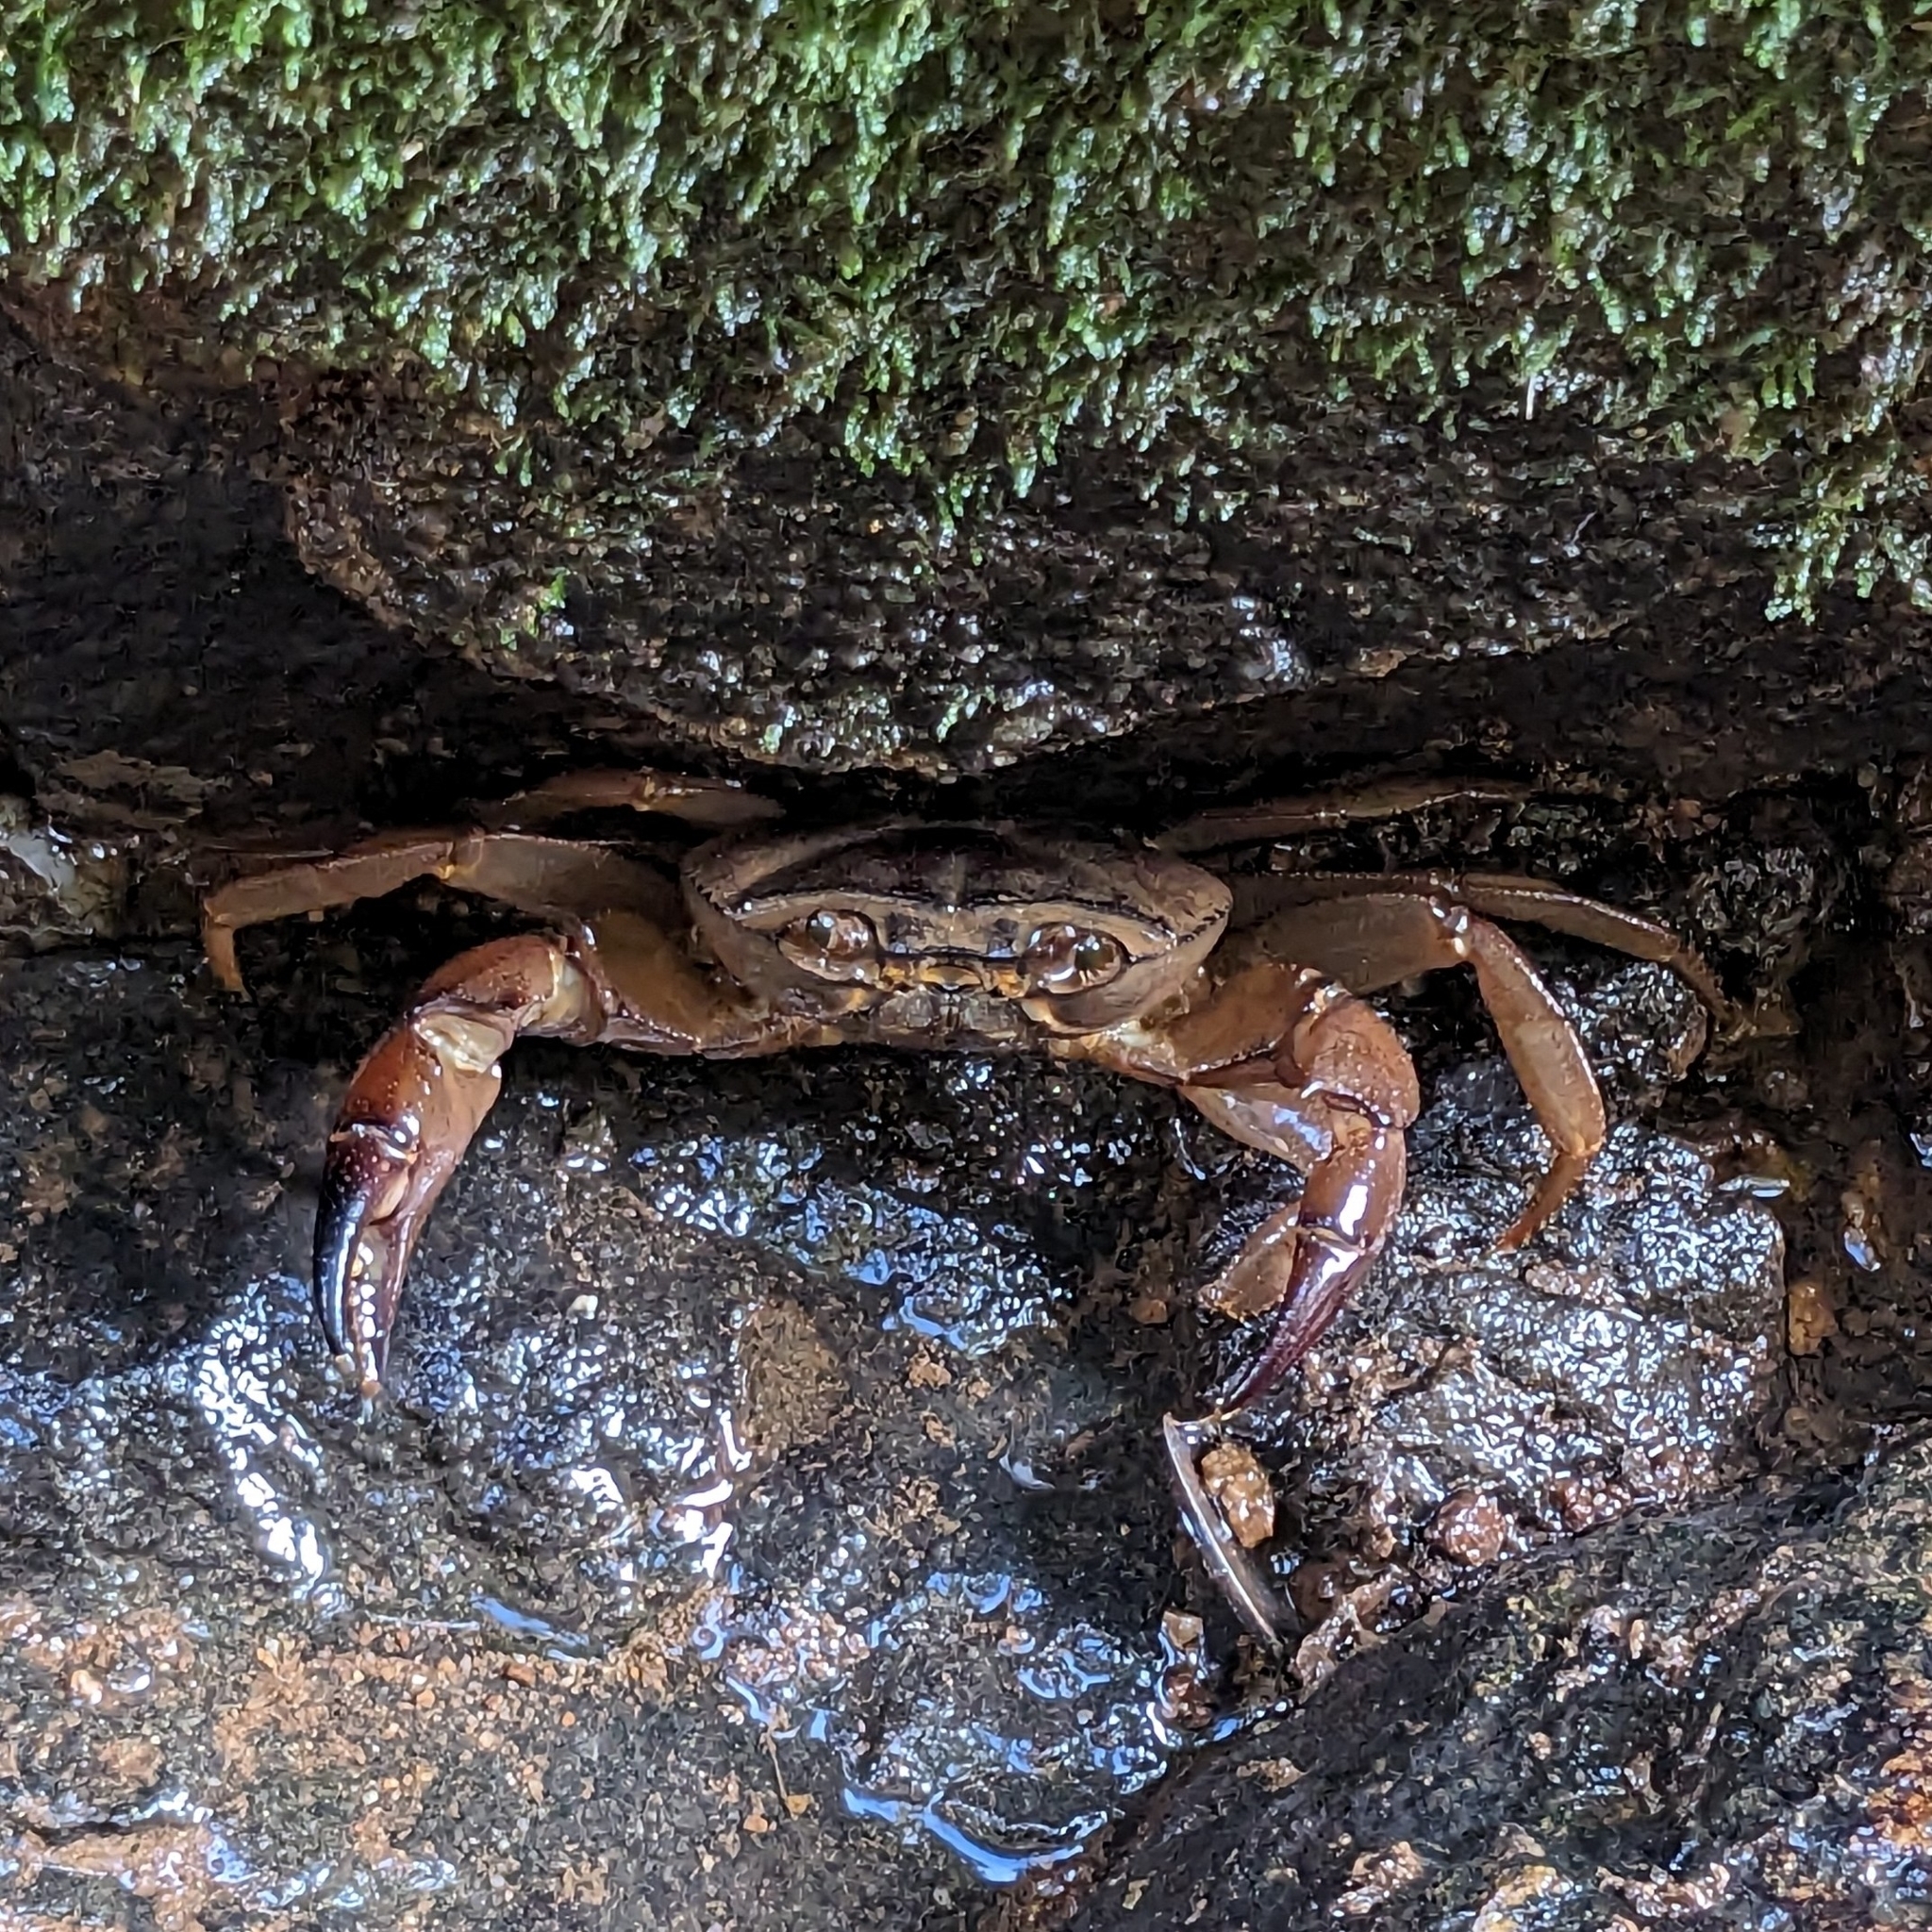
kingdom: Animalia
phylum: Arthropoda
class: Malacostraca
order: Decapoda
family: Gecarcinucidae
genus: Barytelphusa
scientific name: Barytelphusa cunicularis
